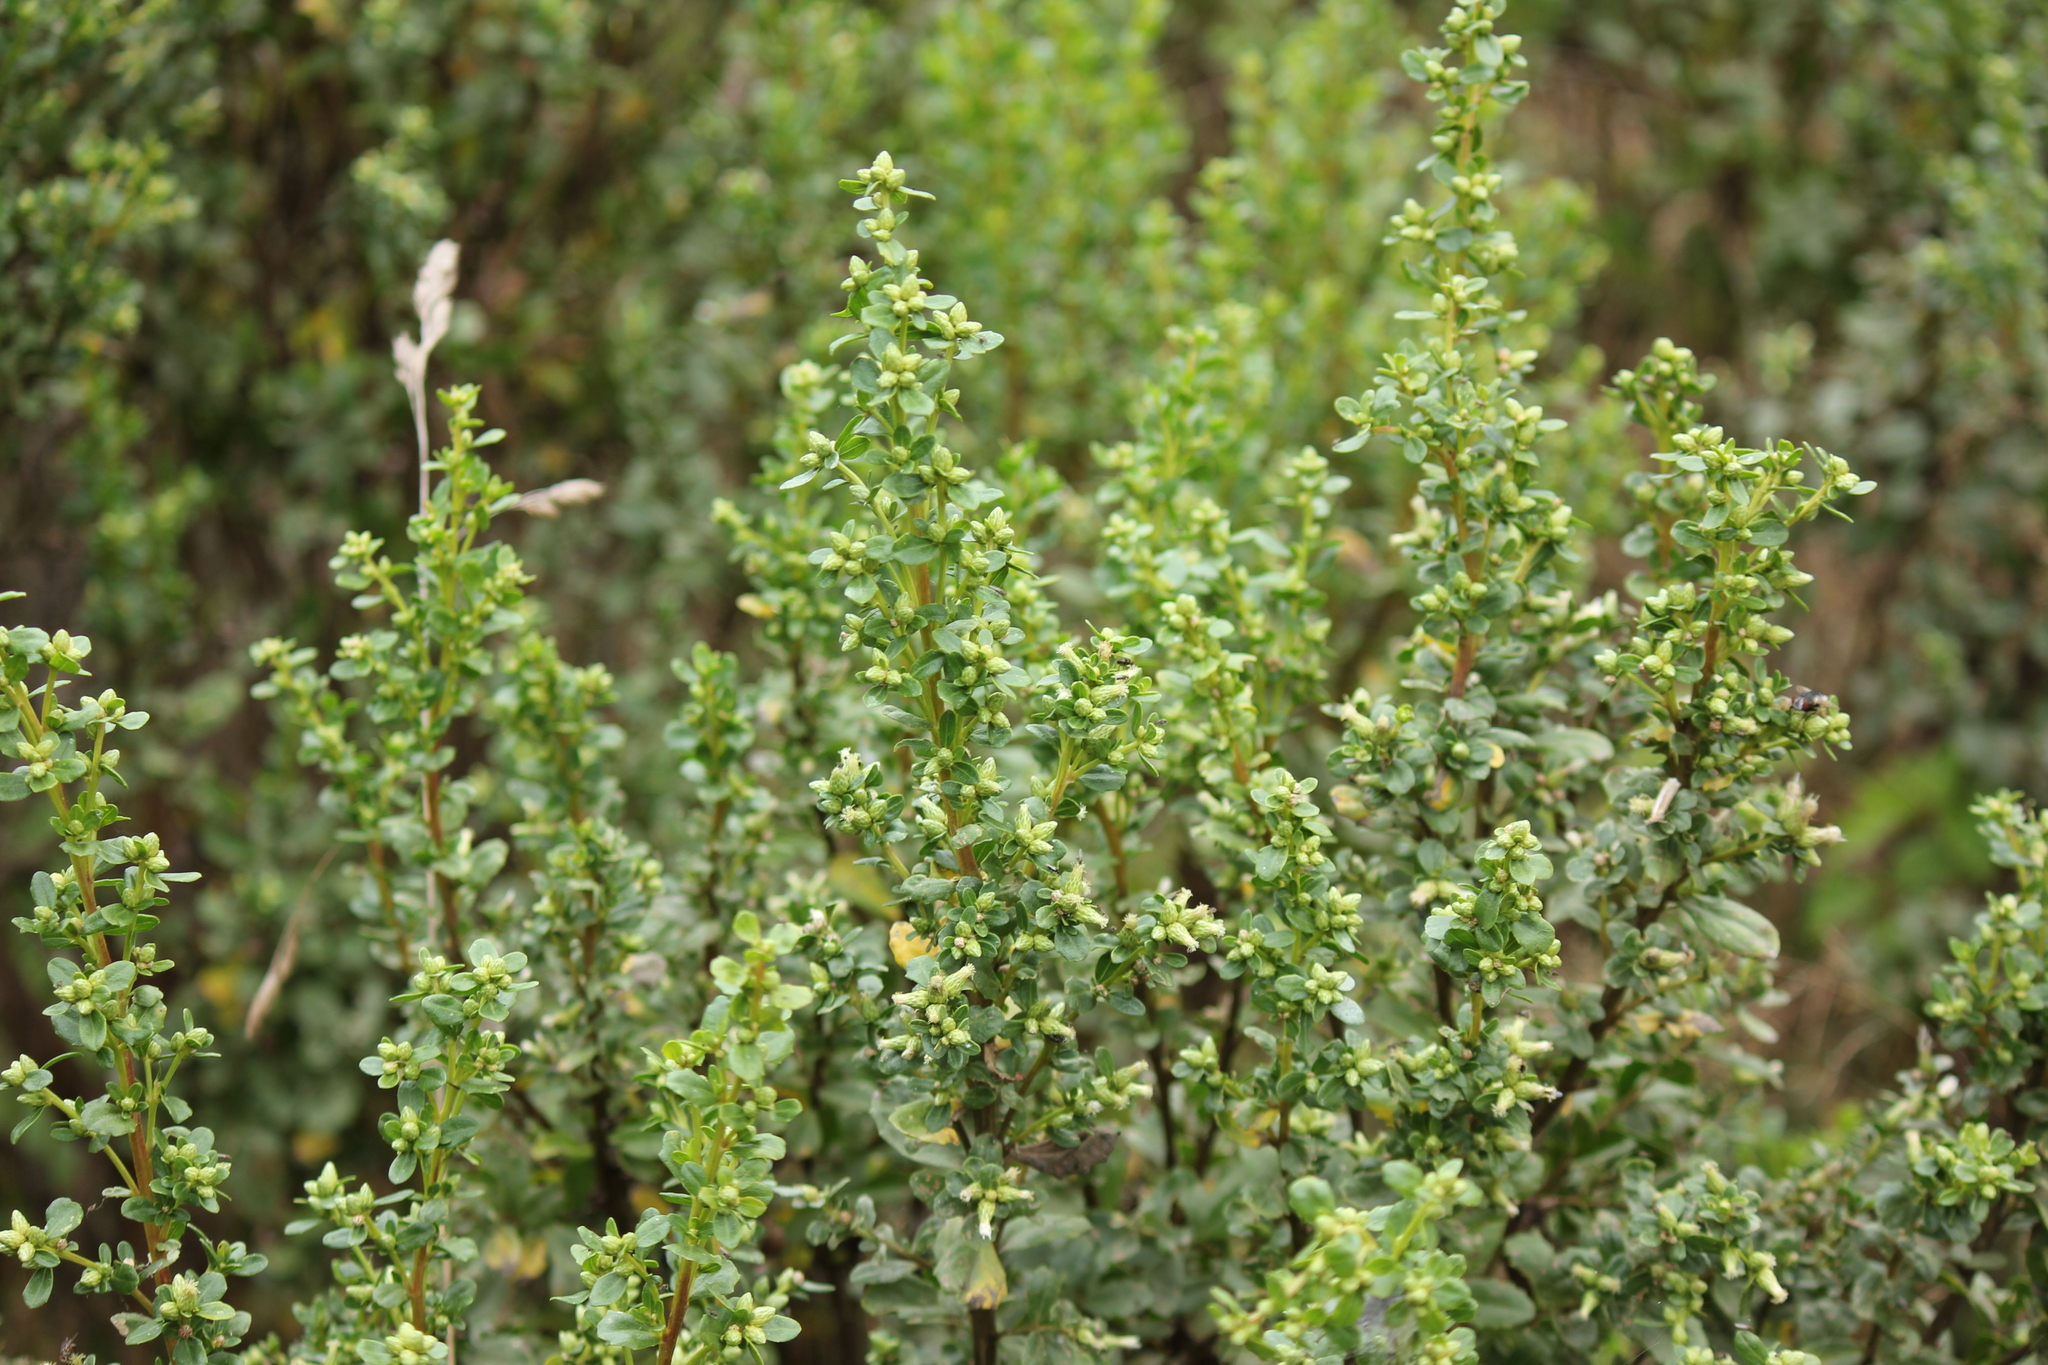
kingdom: Plantae
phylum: Tracheophyta
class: Magnoliopsida
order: Asterales
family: Asteraceae
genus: Baccharis
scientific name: Baccharis pilularis
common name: Coyotebrush
